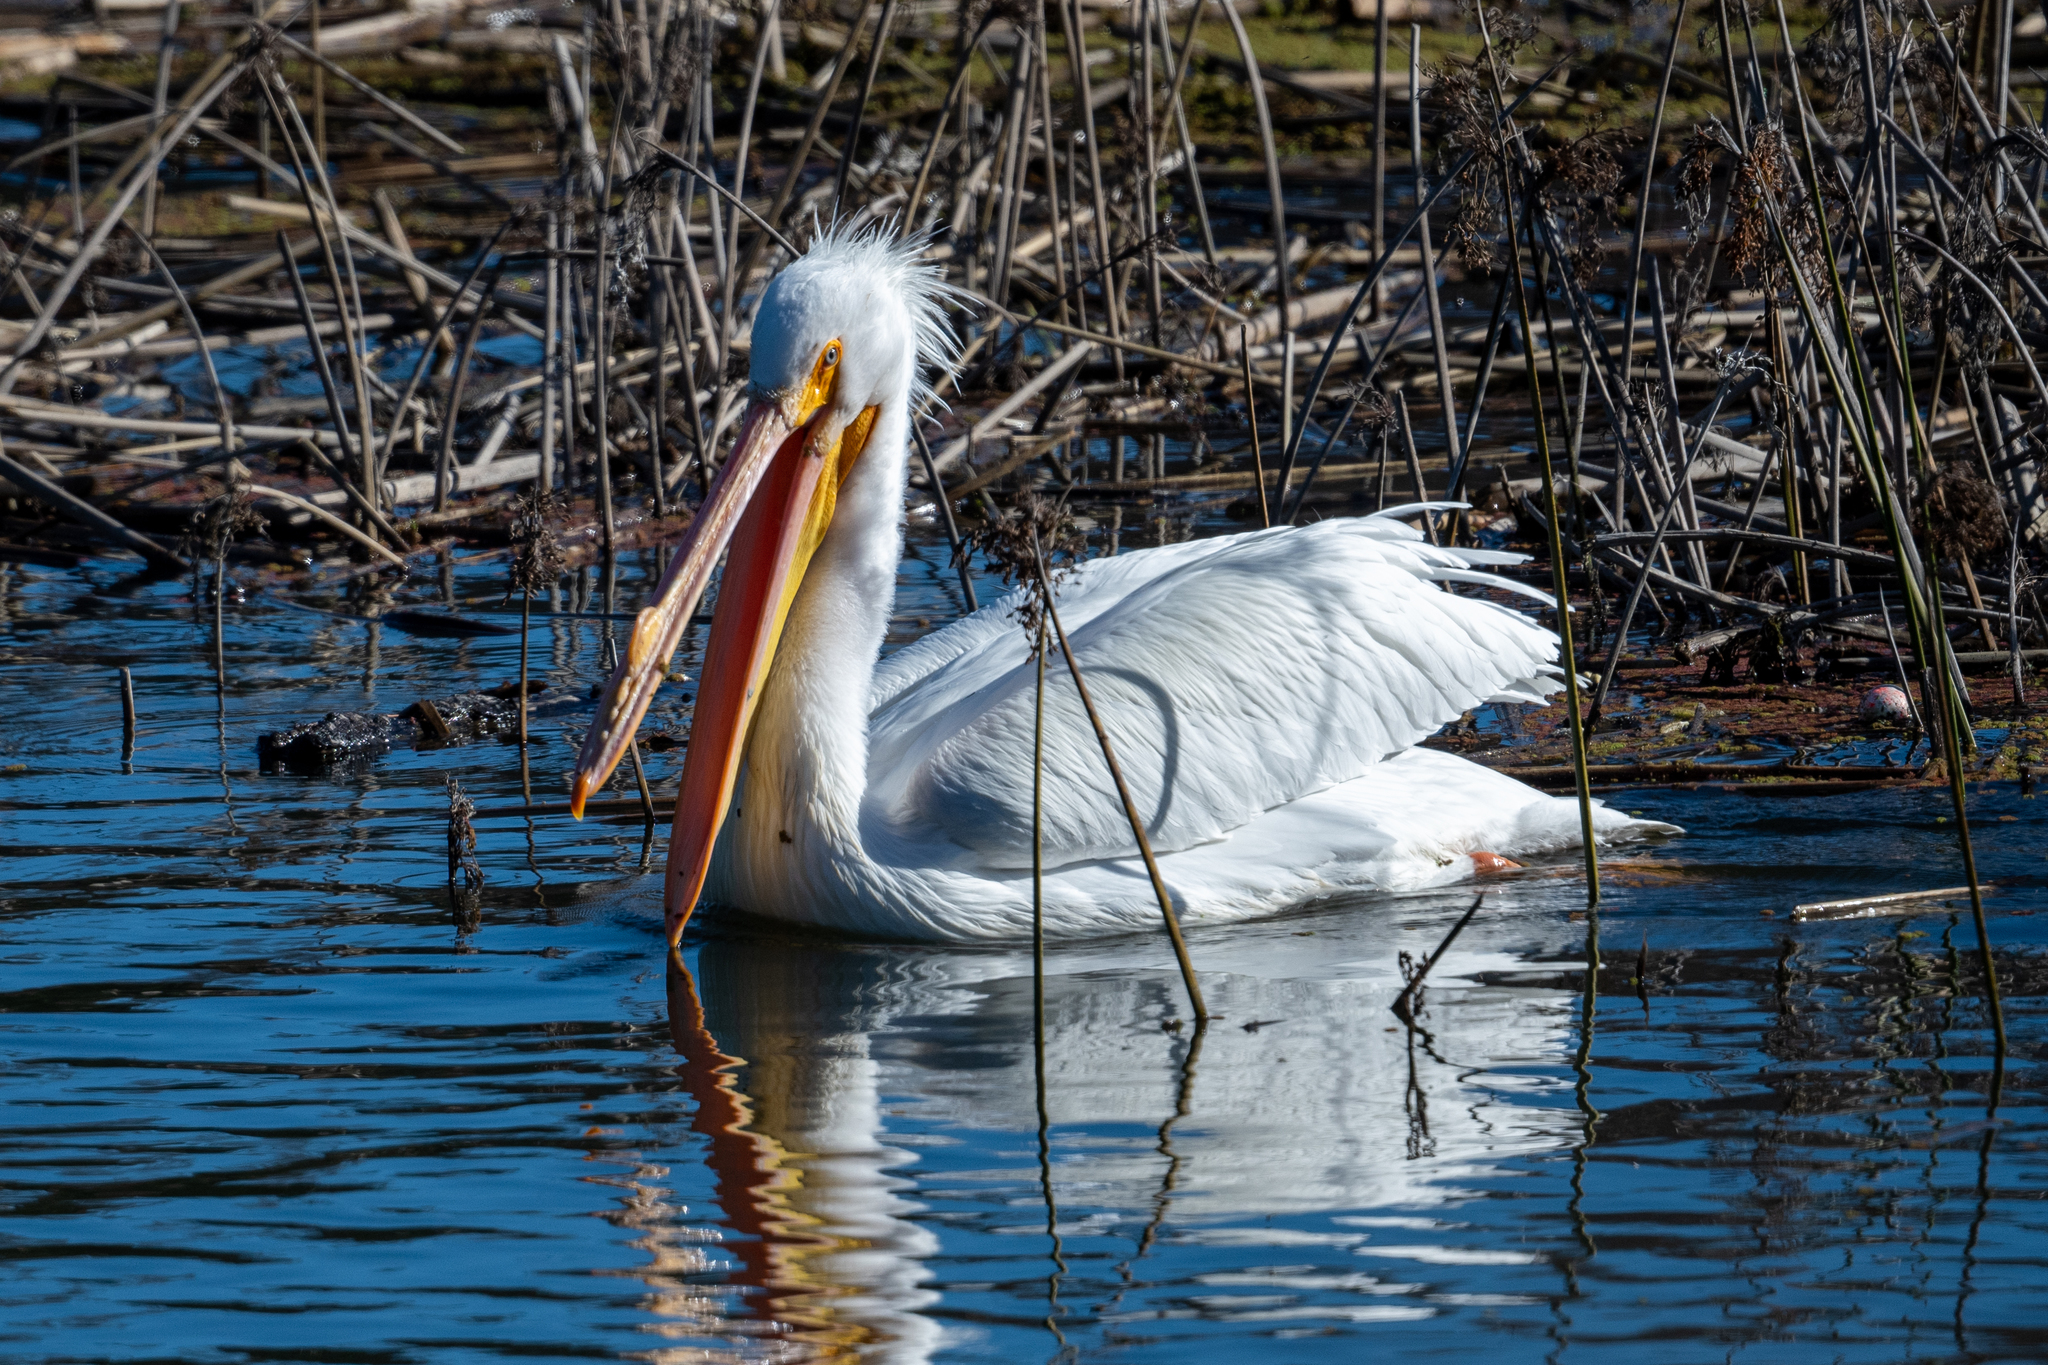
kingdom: Animalia
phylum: Chordata
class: Aves
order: Pelecaniformes
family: Pelecanidae
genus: Pelecanus
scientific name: Pelecanus erythrorhynchos
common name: American white pelican
